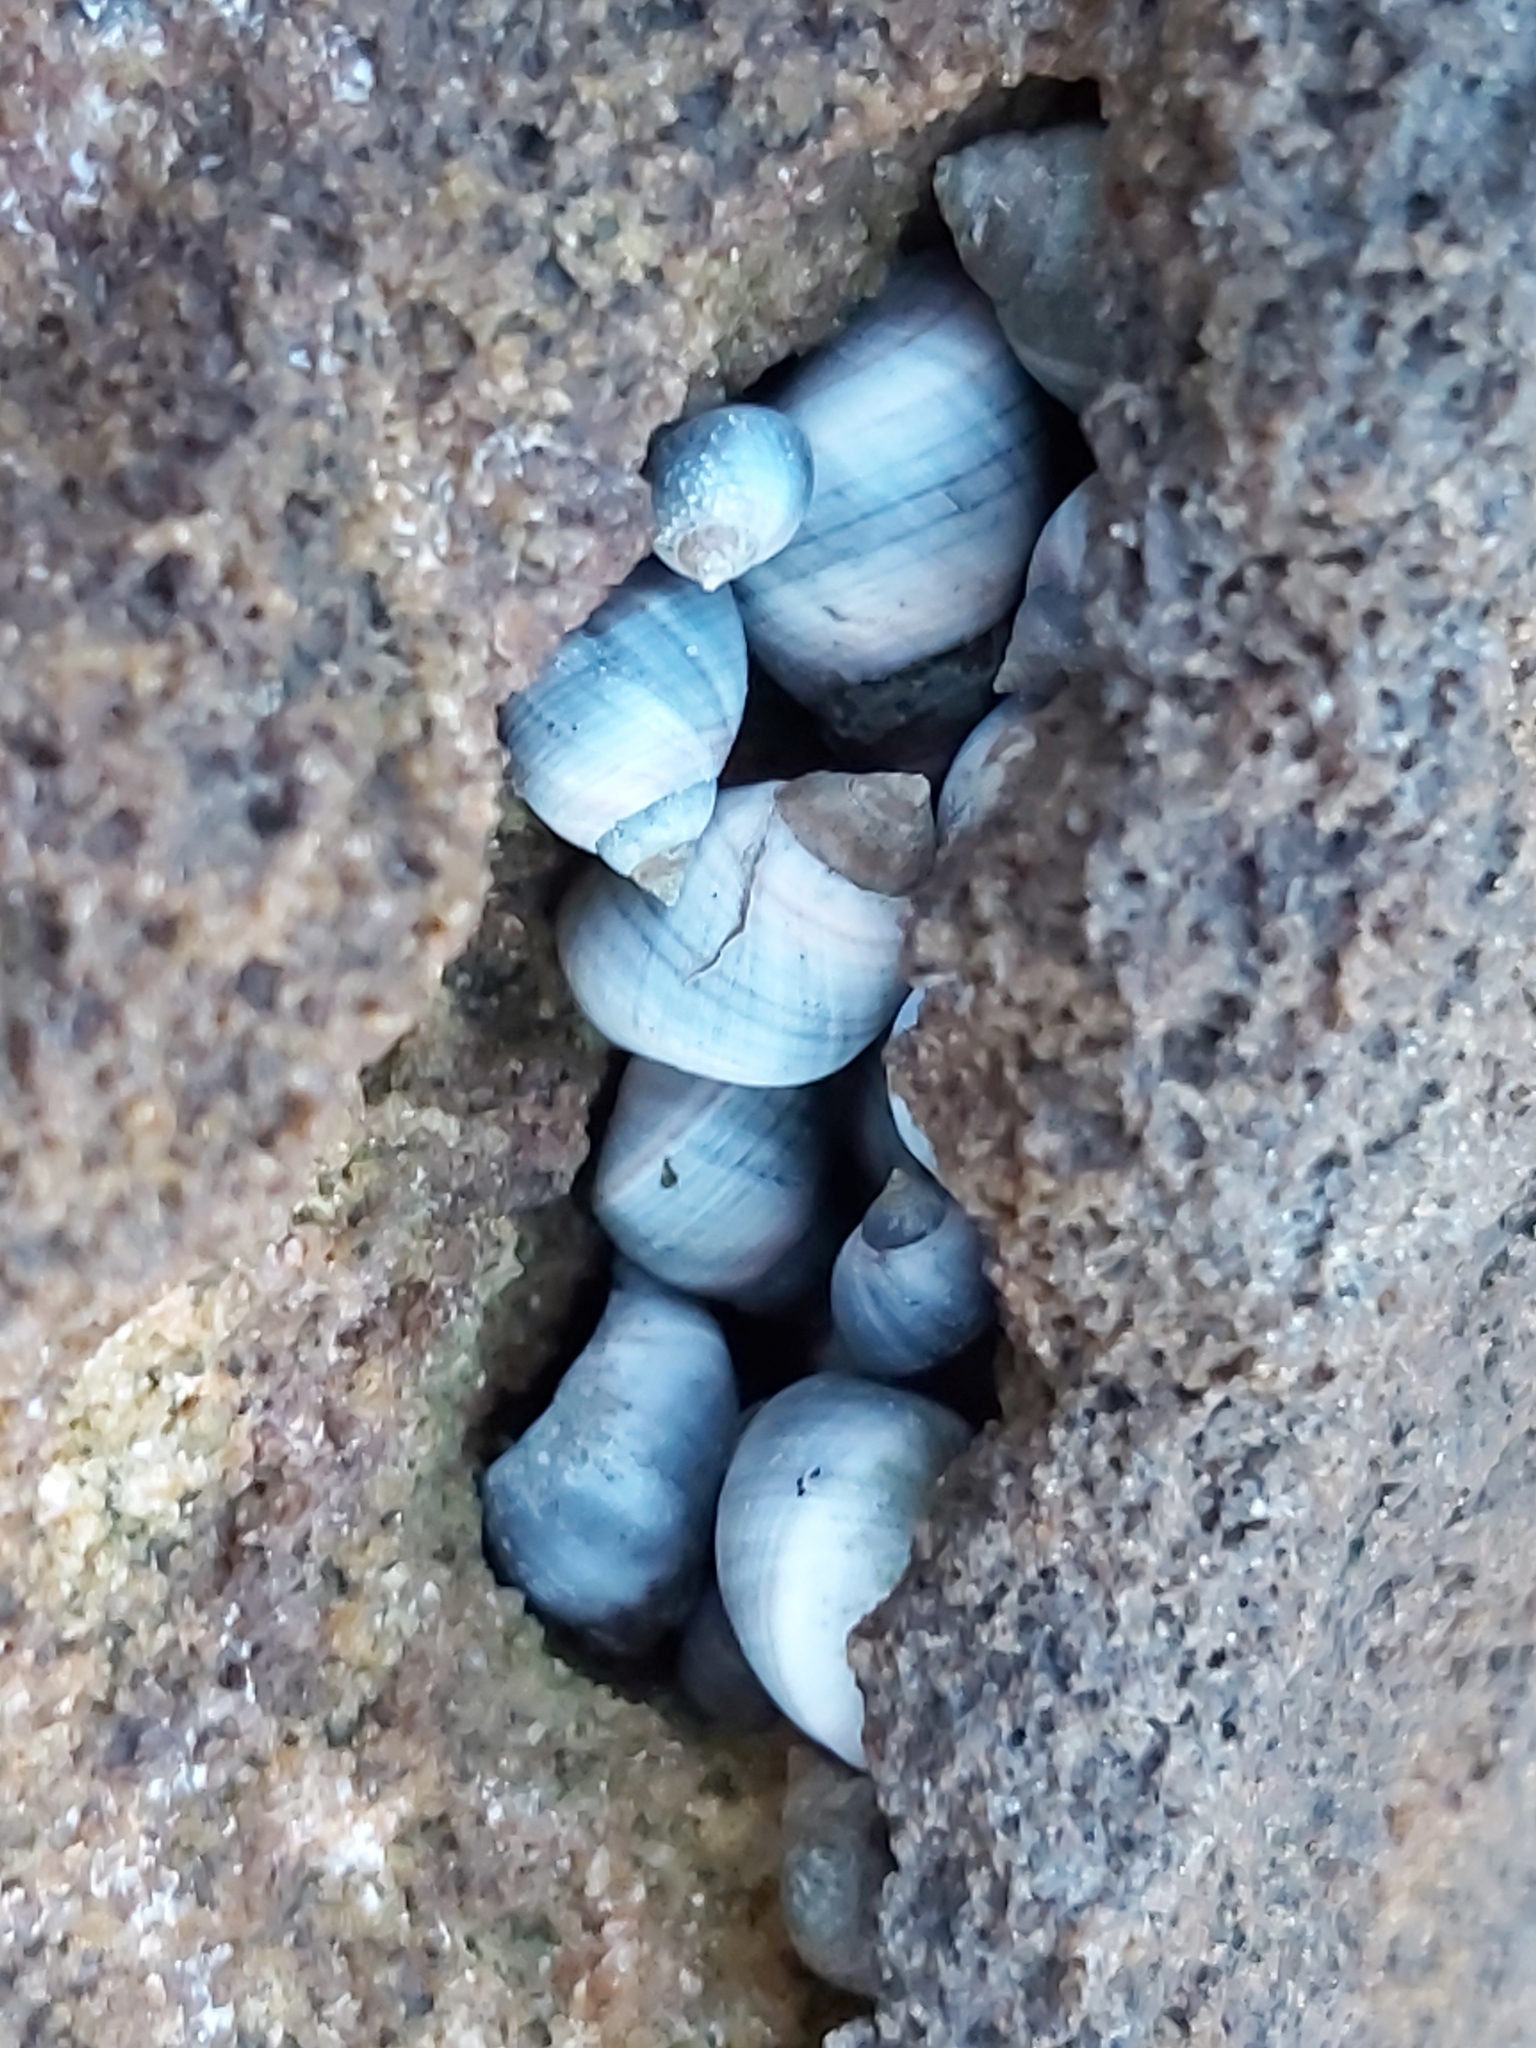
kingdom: Animalia
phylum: Mollusca
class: Gastropoda
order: Littorinimorpha
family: Littorinidae
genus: Austrolittorina
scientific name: Austrolittorina unifasciata
